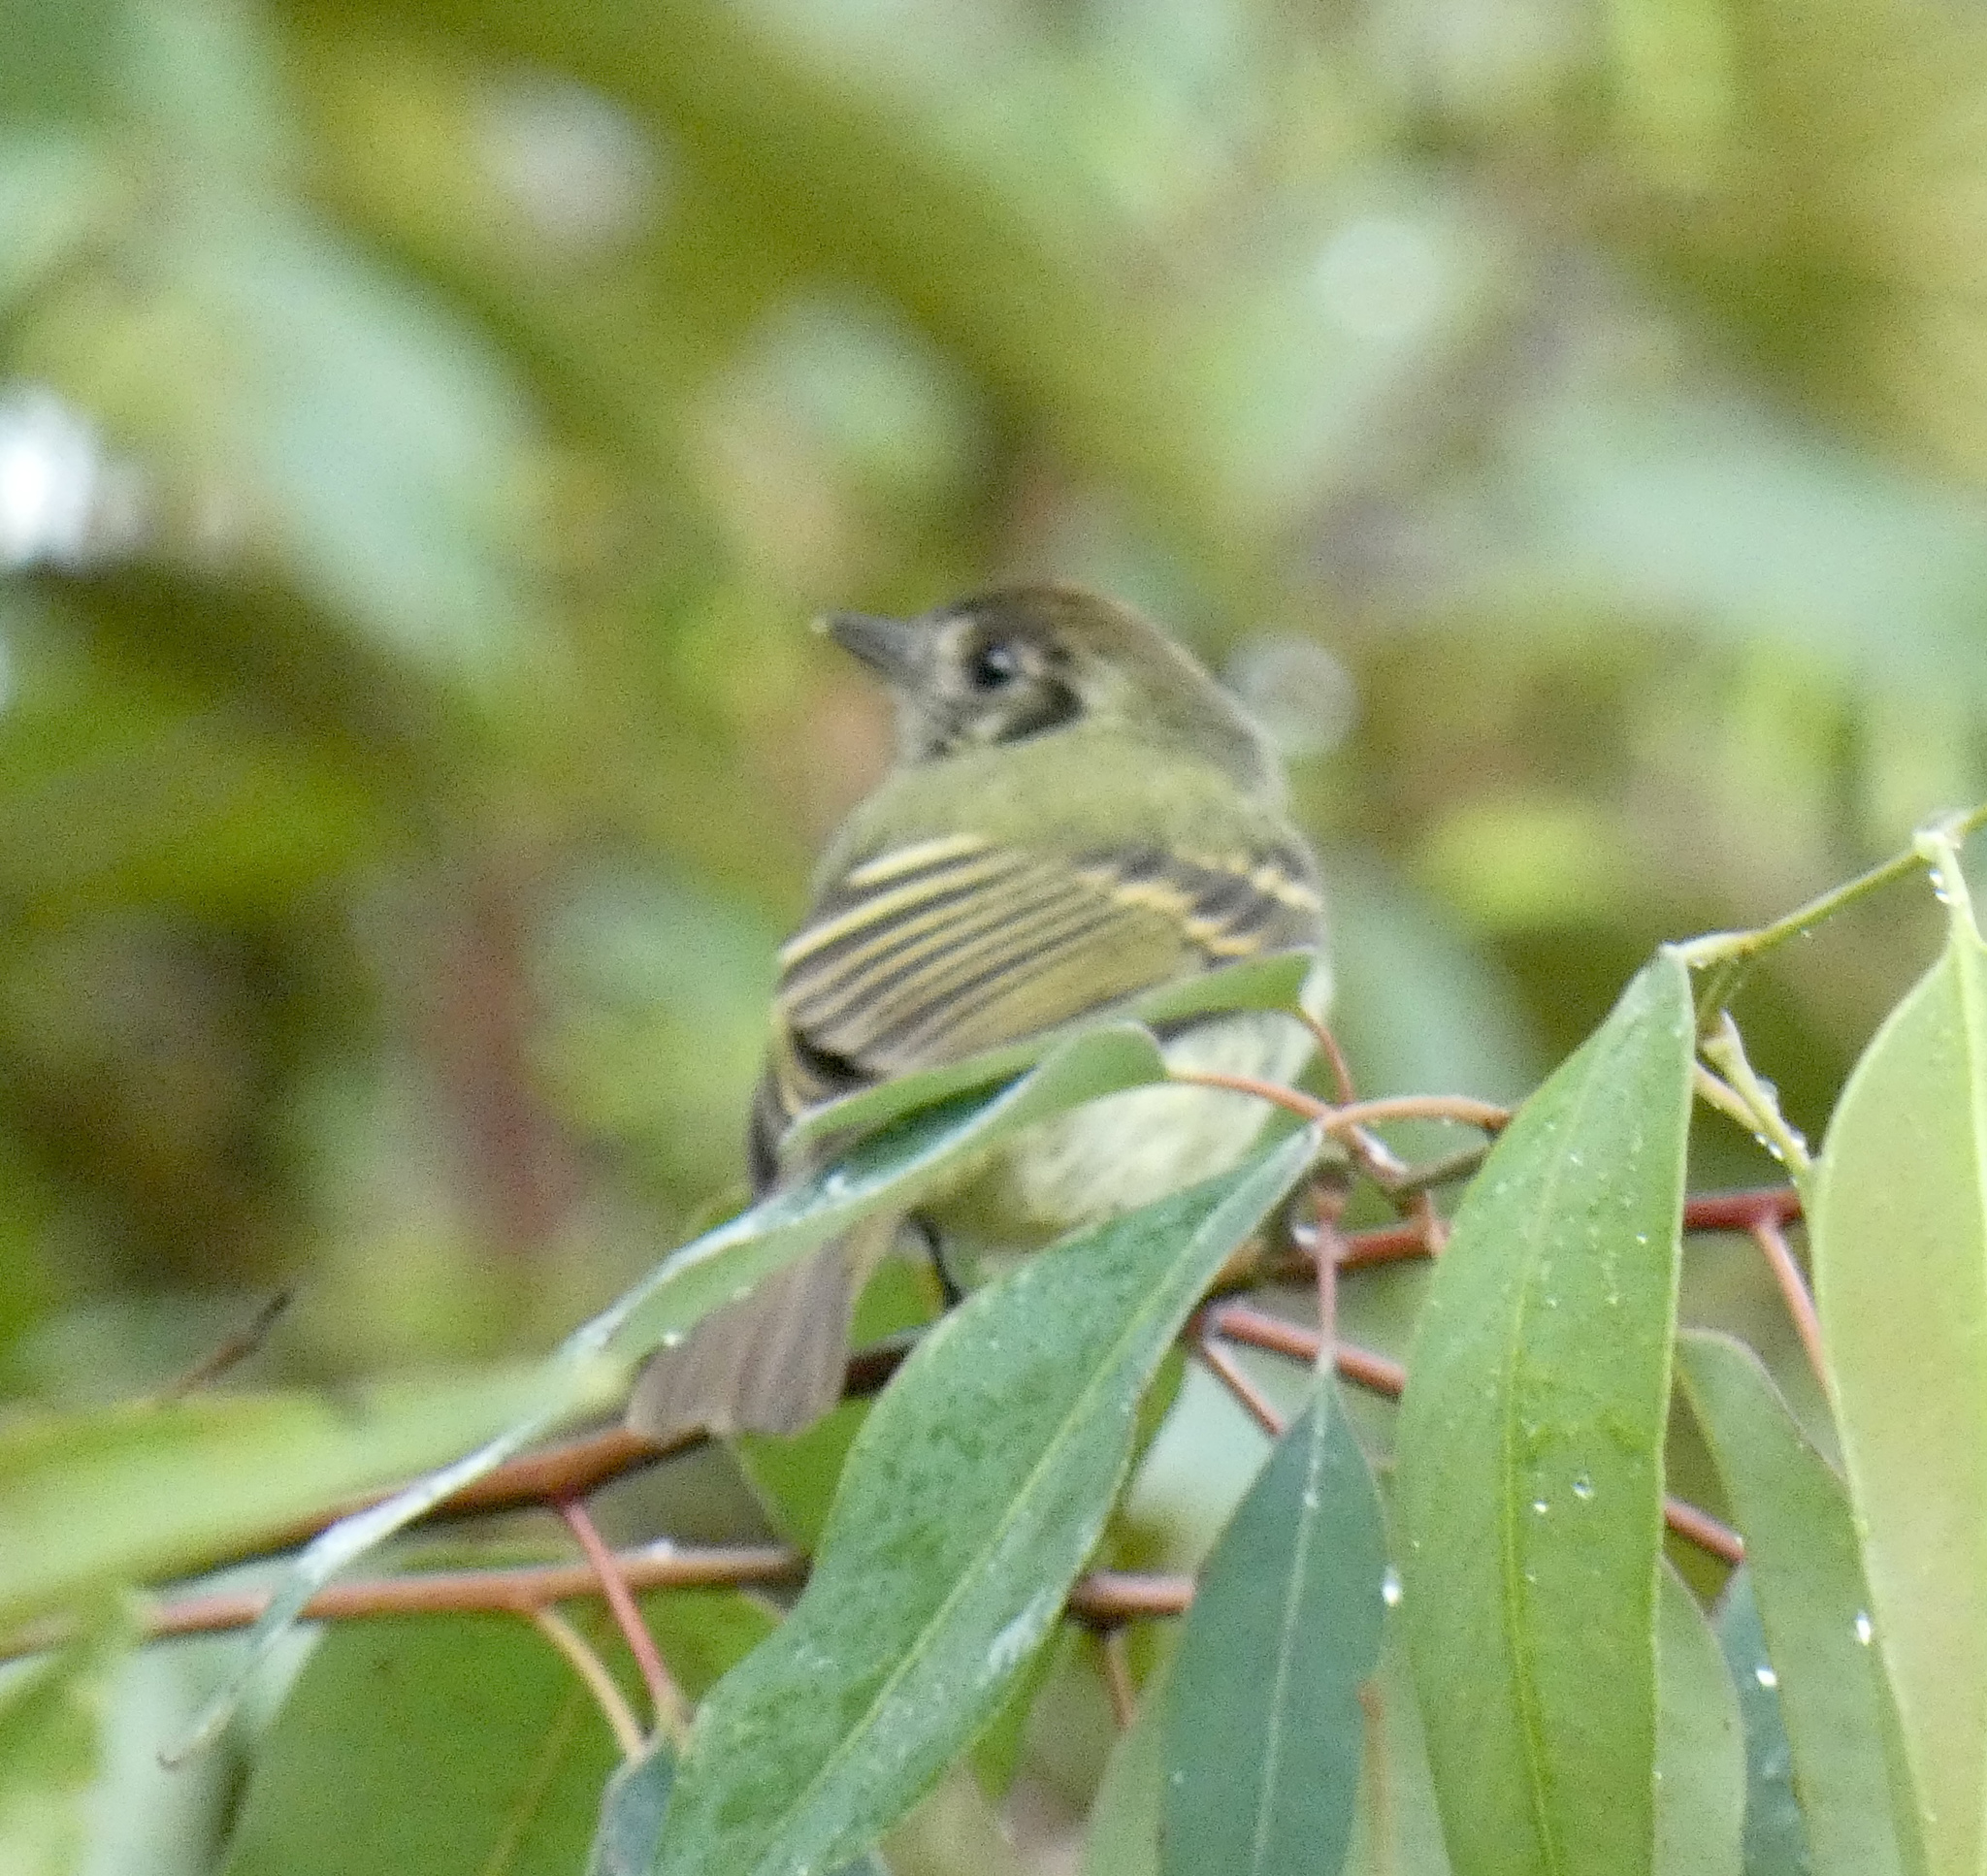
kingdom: Animalia
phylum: Chordata
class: Aves
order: Passeriformes
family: Tyrannidae
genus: Leptopogon
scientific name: Leptopogon amaurocephalus
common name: Sepia-capped flycatcher
